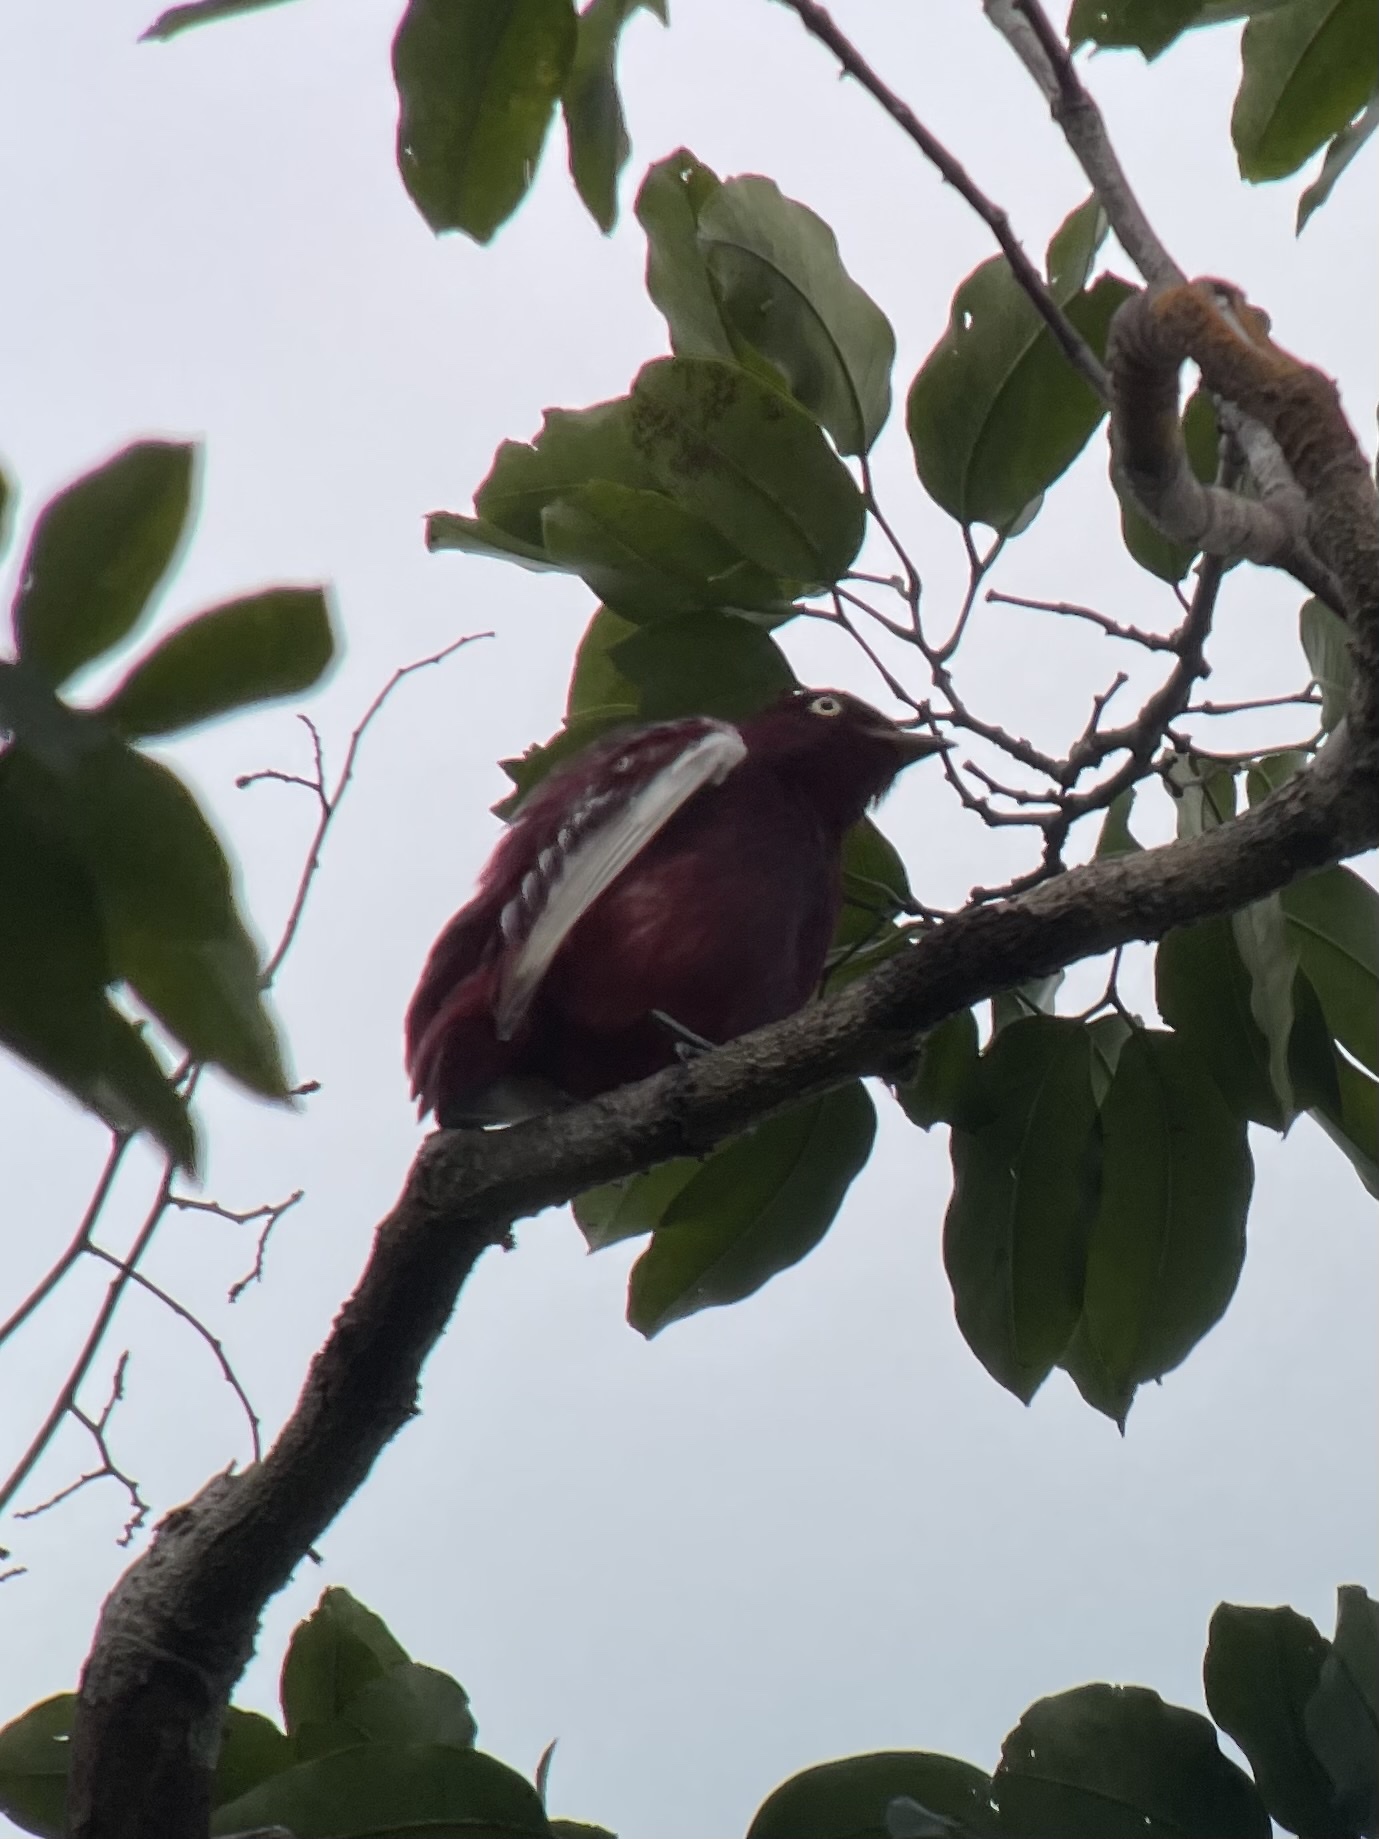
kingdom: Animalia
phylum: Chordata
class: Aves
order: Passeriformes
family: Cotingidae
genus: Xipholena
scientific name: Xipholena punicea
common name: Pompadour cotinga
